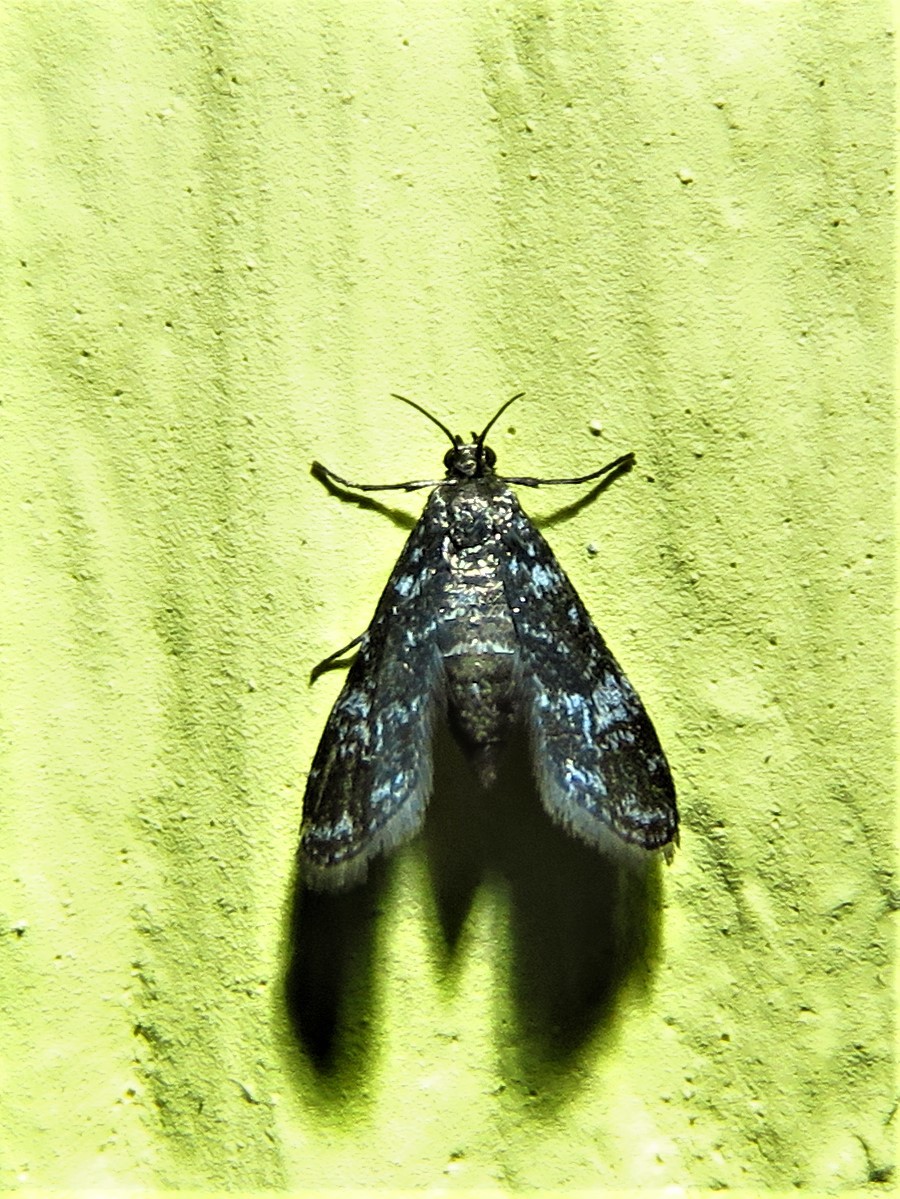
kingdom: Animalia
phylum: Arthropoda
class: Insecta
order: Lepidoptera
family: Crambidae
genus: Elophila
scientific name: Elophila tinealis
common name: Black duckweed moth
